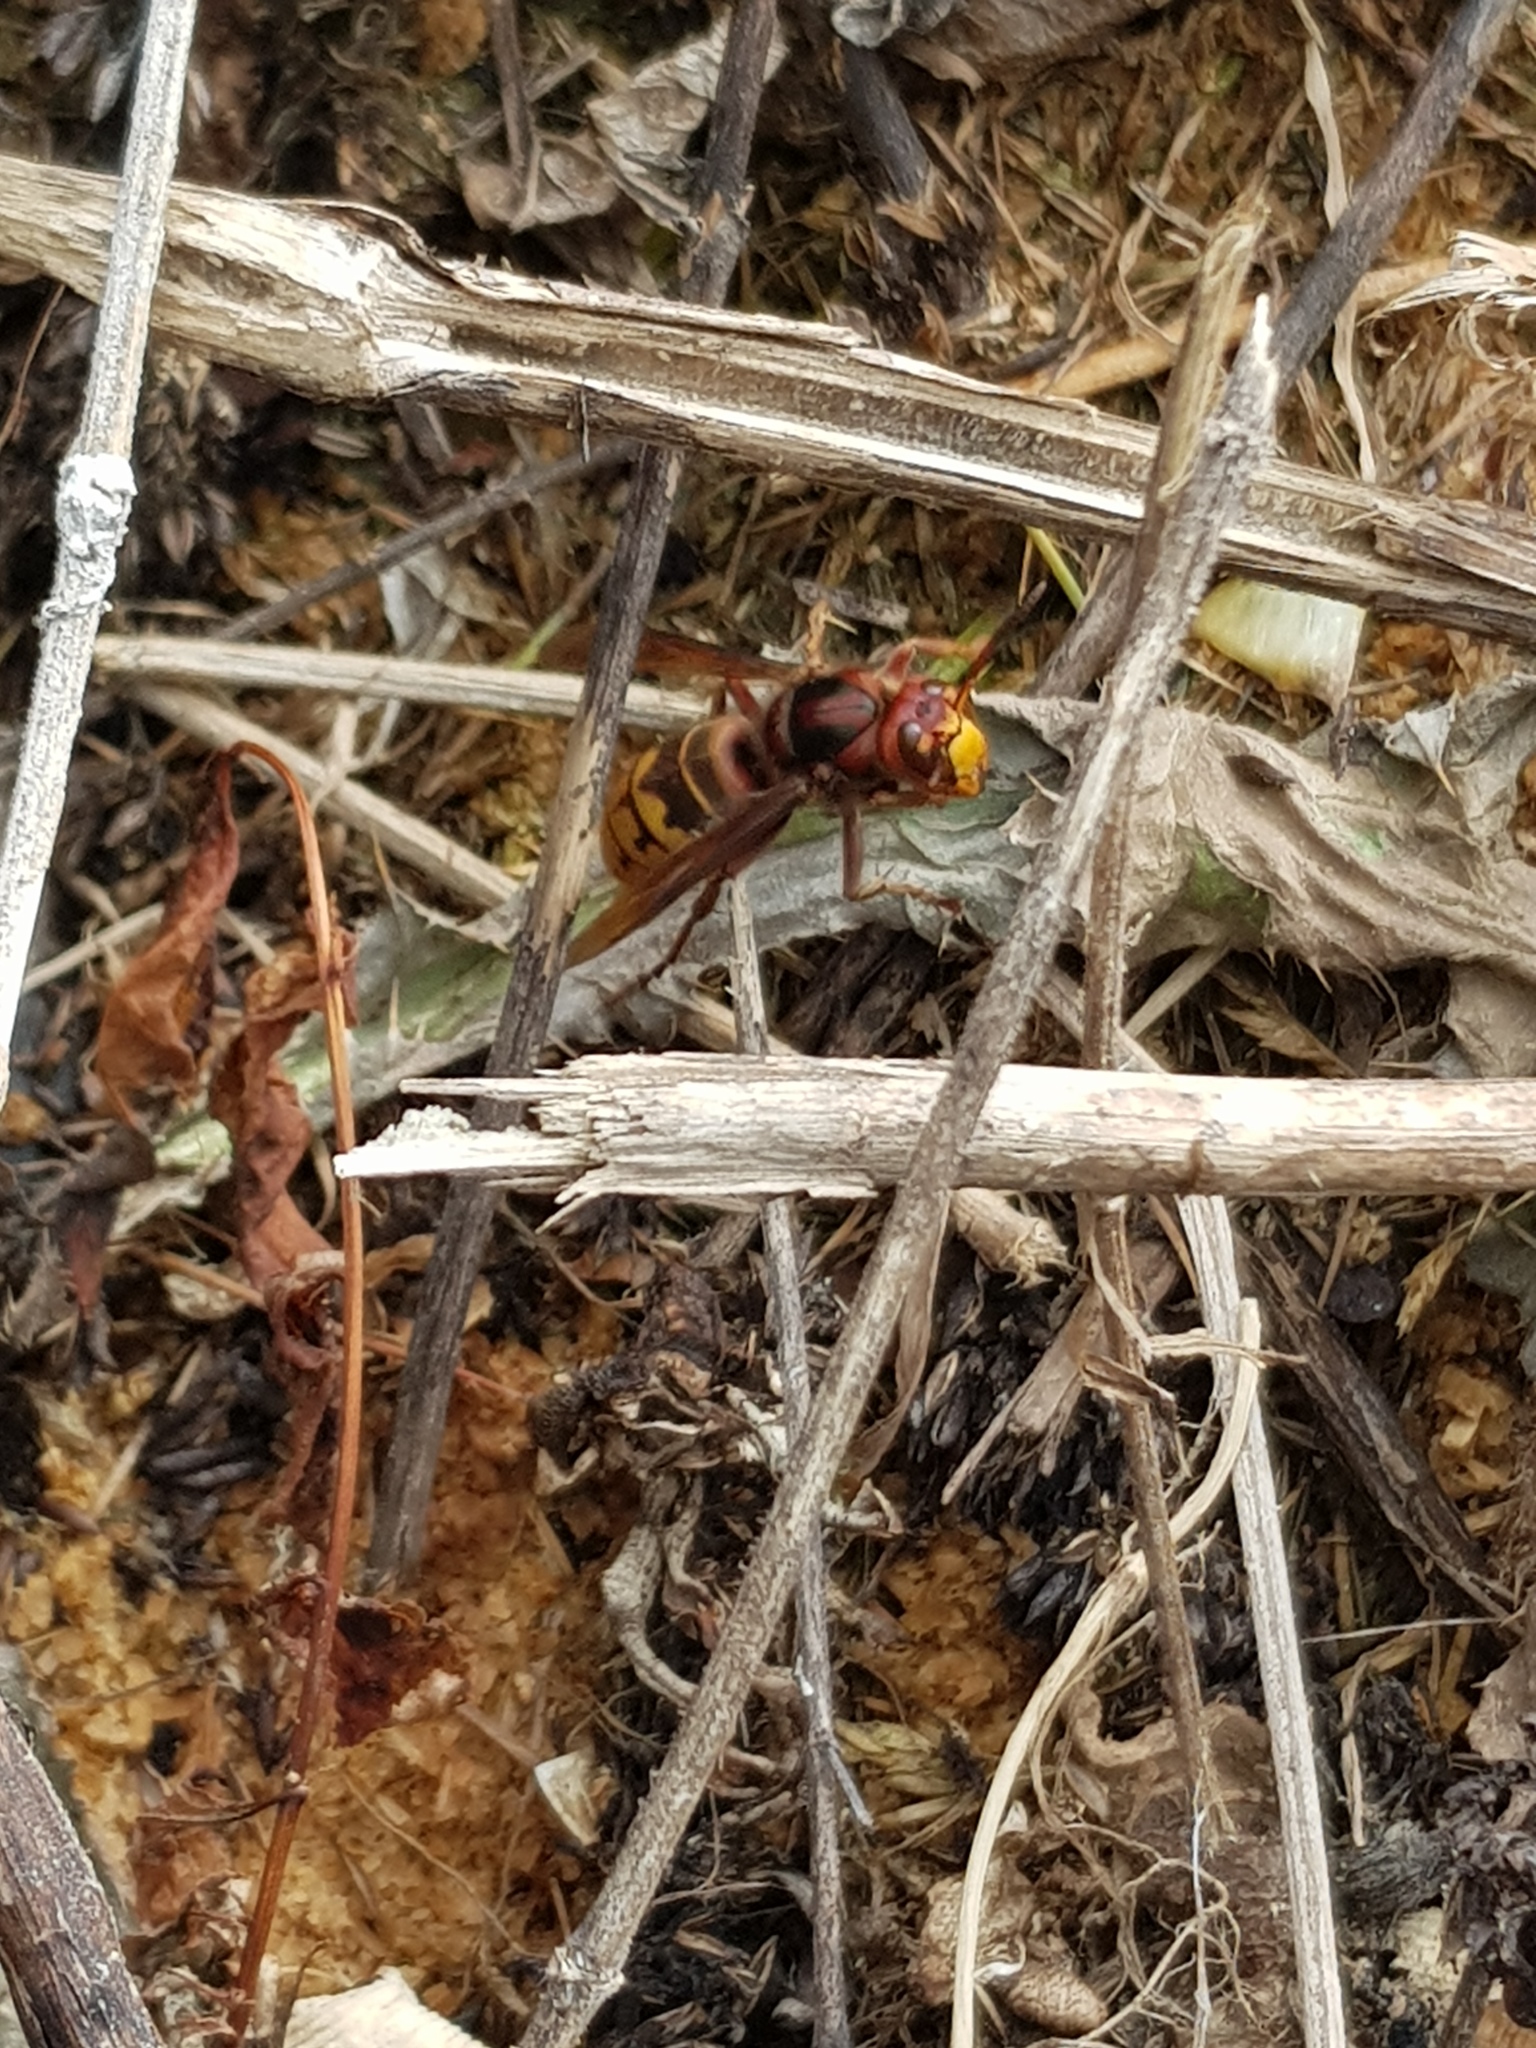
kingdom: Animalia
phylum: Arthropoda
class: Insecta
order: Hymenoptera
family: Vespidae
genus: Vespa
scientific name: Vespa crabro
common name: Hornet
